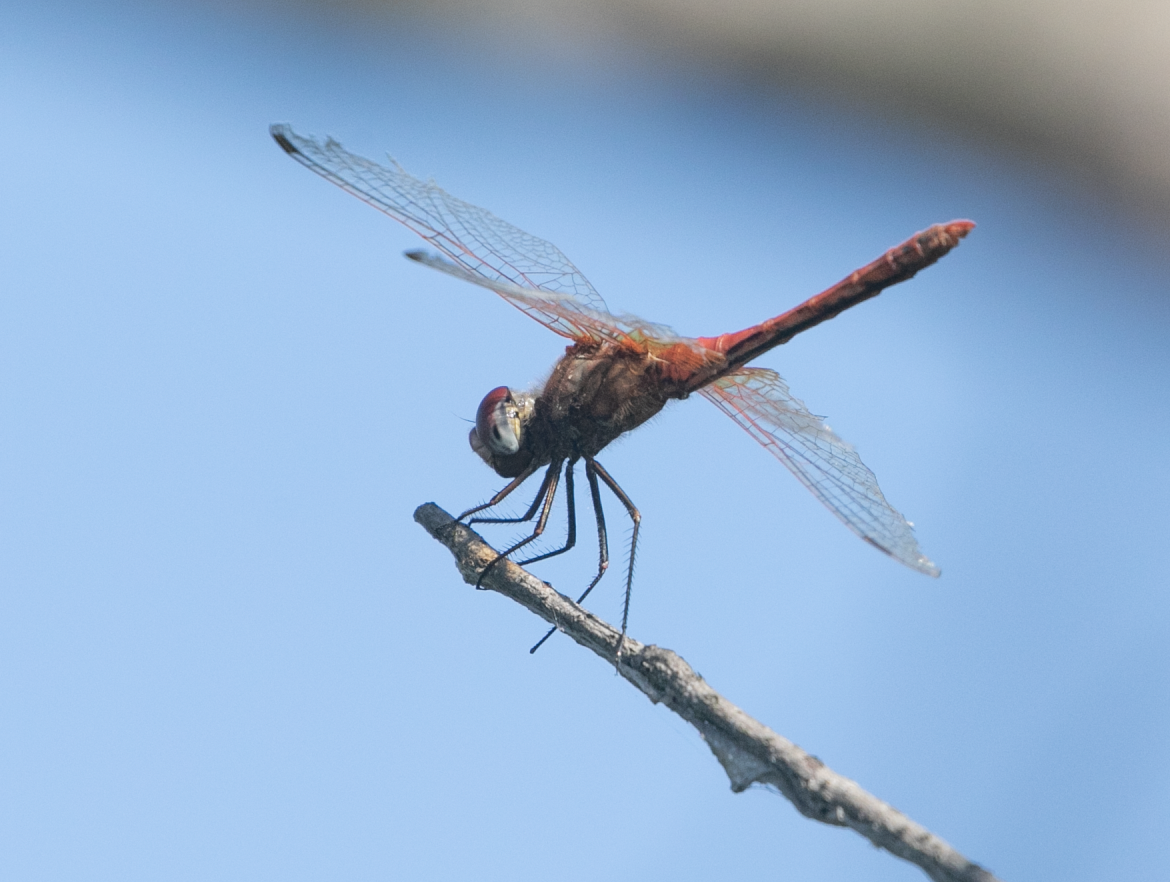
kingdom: Animalia
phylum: Arthropoda
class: Insecta
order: Odonata
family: Libellulidae
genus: Sympetrum
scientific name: Sympetrum fonscolombii
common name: Red-veined darter
